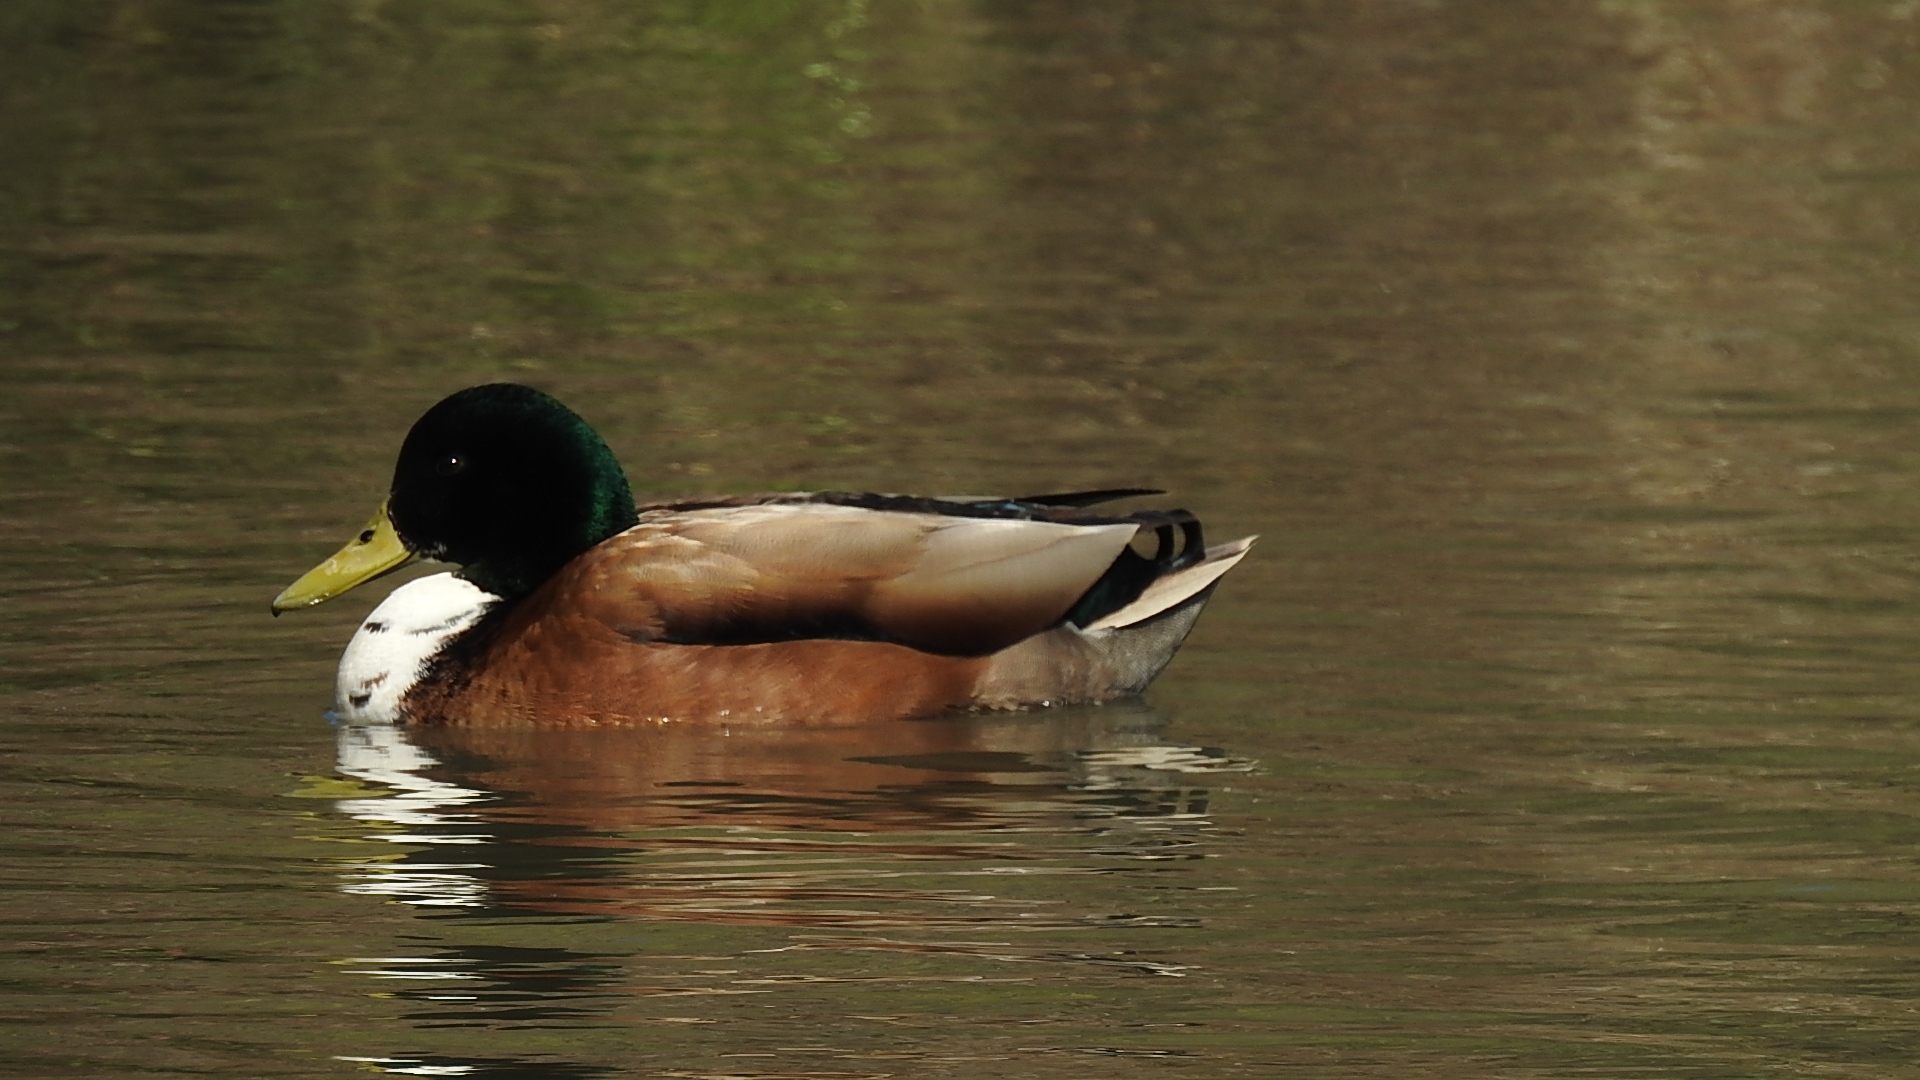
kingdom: Animalia
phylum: Chordata
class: Aves
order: Anseriformes
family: Anatidae
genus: Anas
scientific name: Anas platyrhynchos
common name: Mallard
